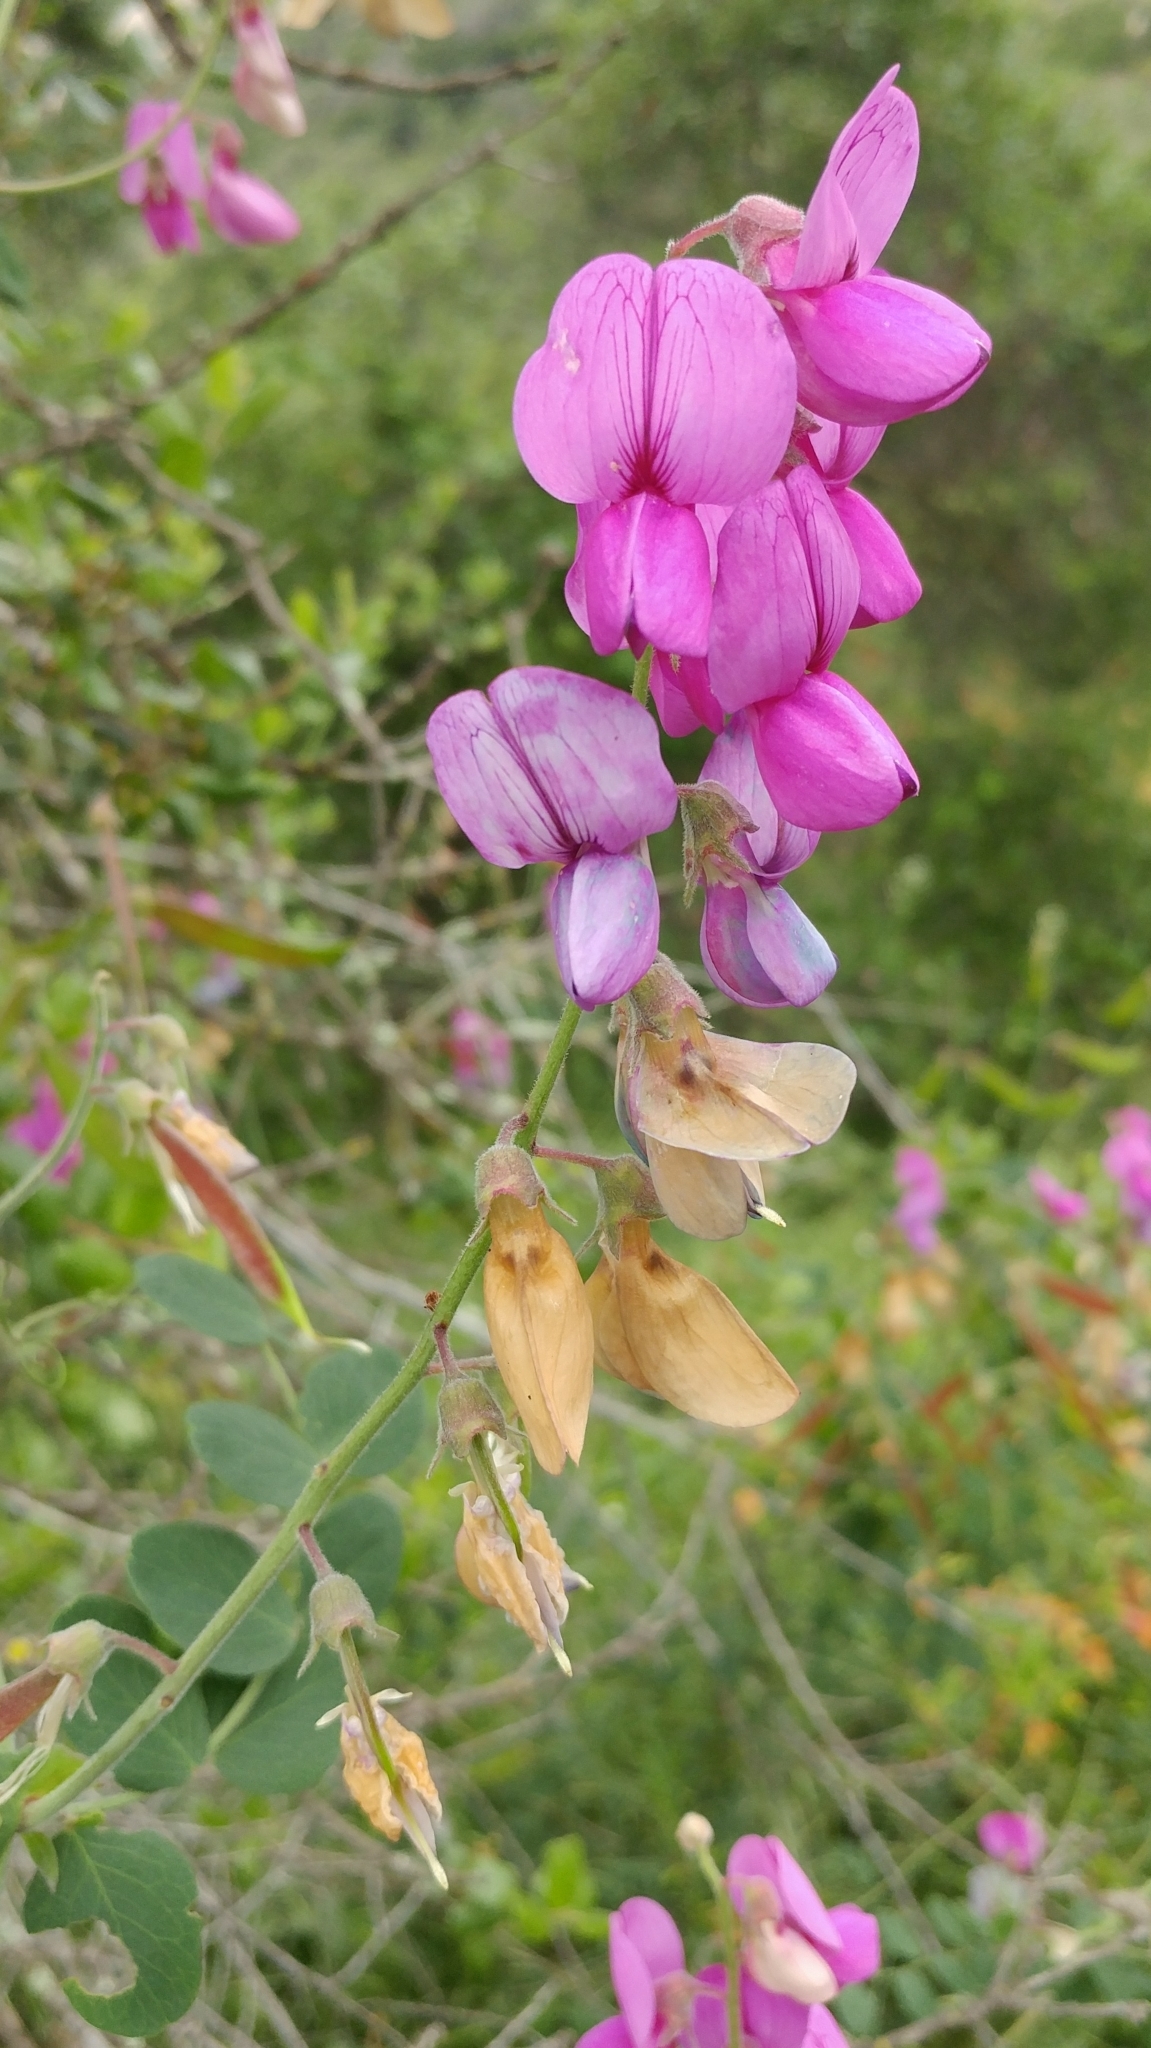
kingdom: Plantae
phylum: Tracheophyta
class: Magnoliopsida
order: Fabales
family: Fabaceae
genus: Lathyrus
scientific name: Lathyrus vestitus
